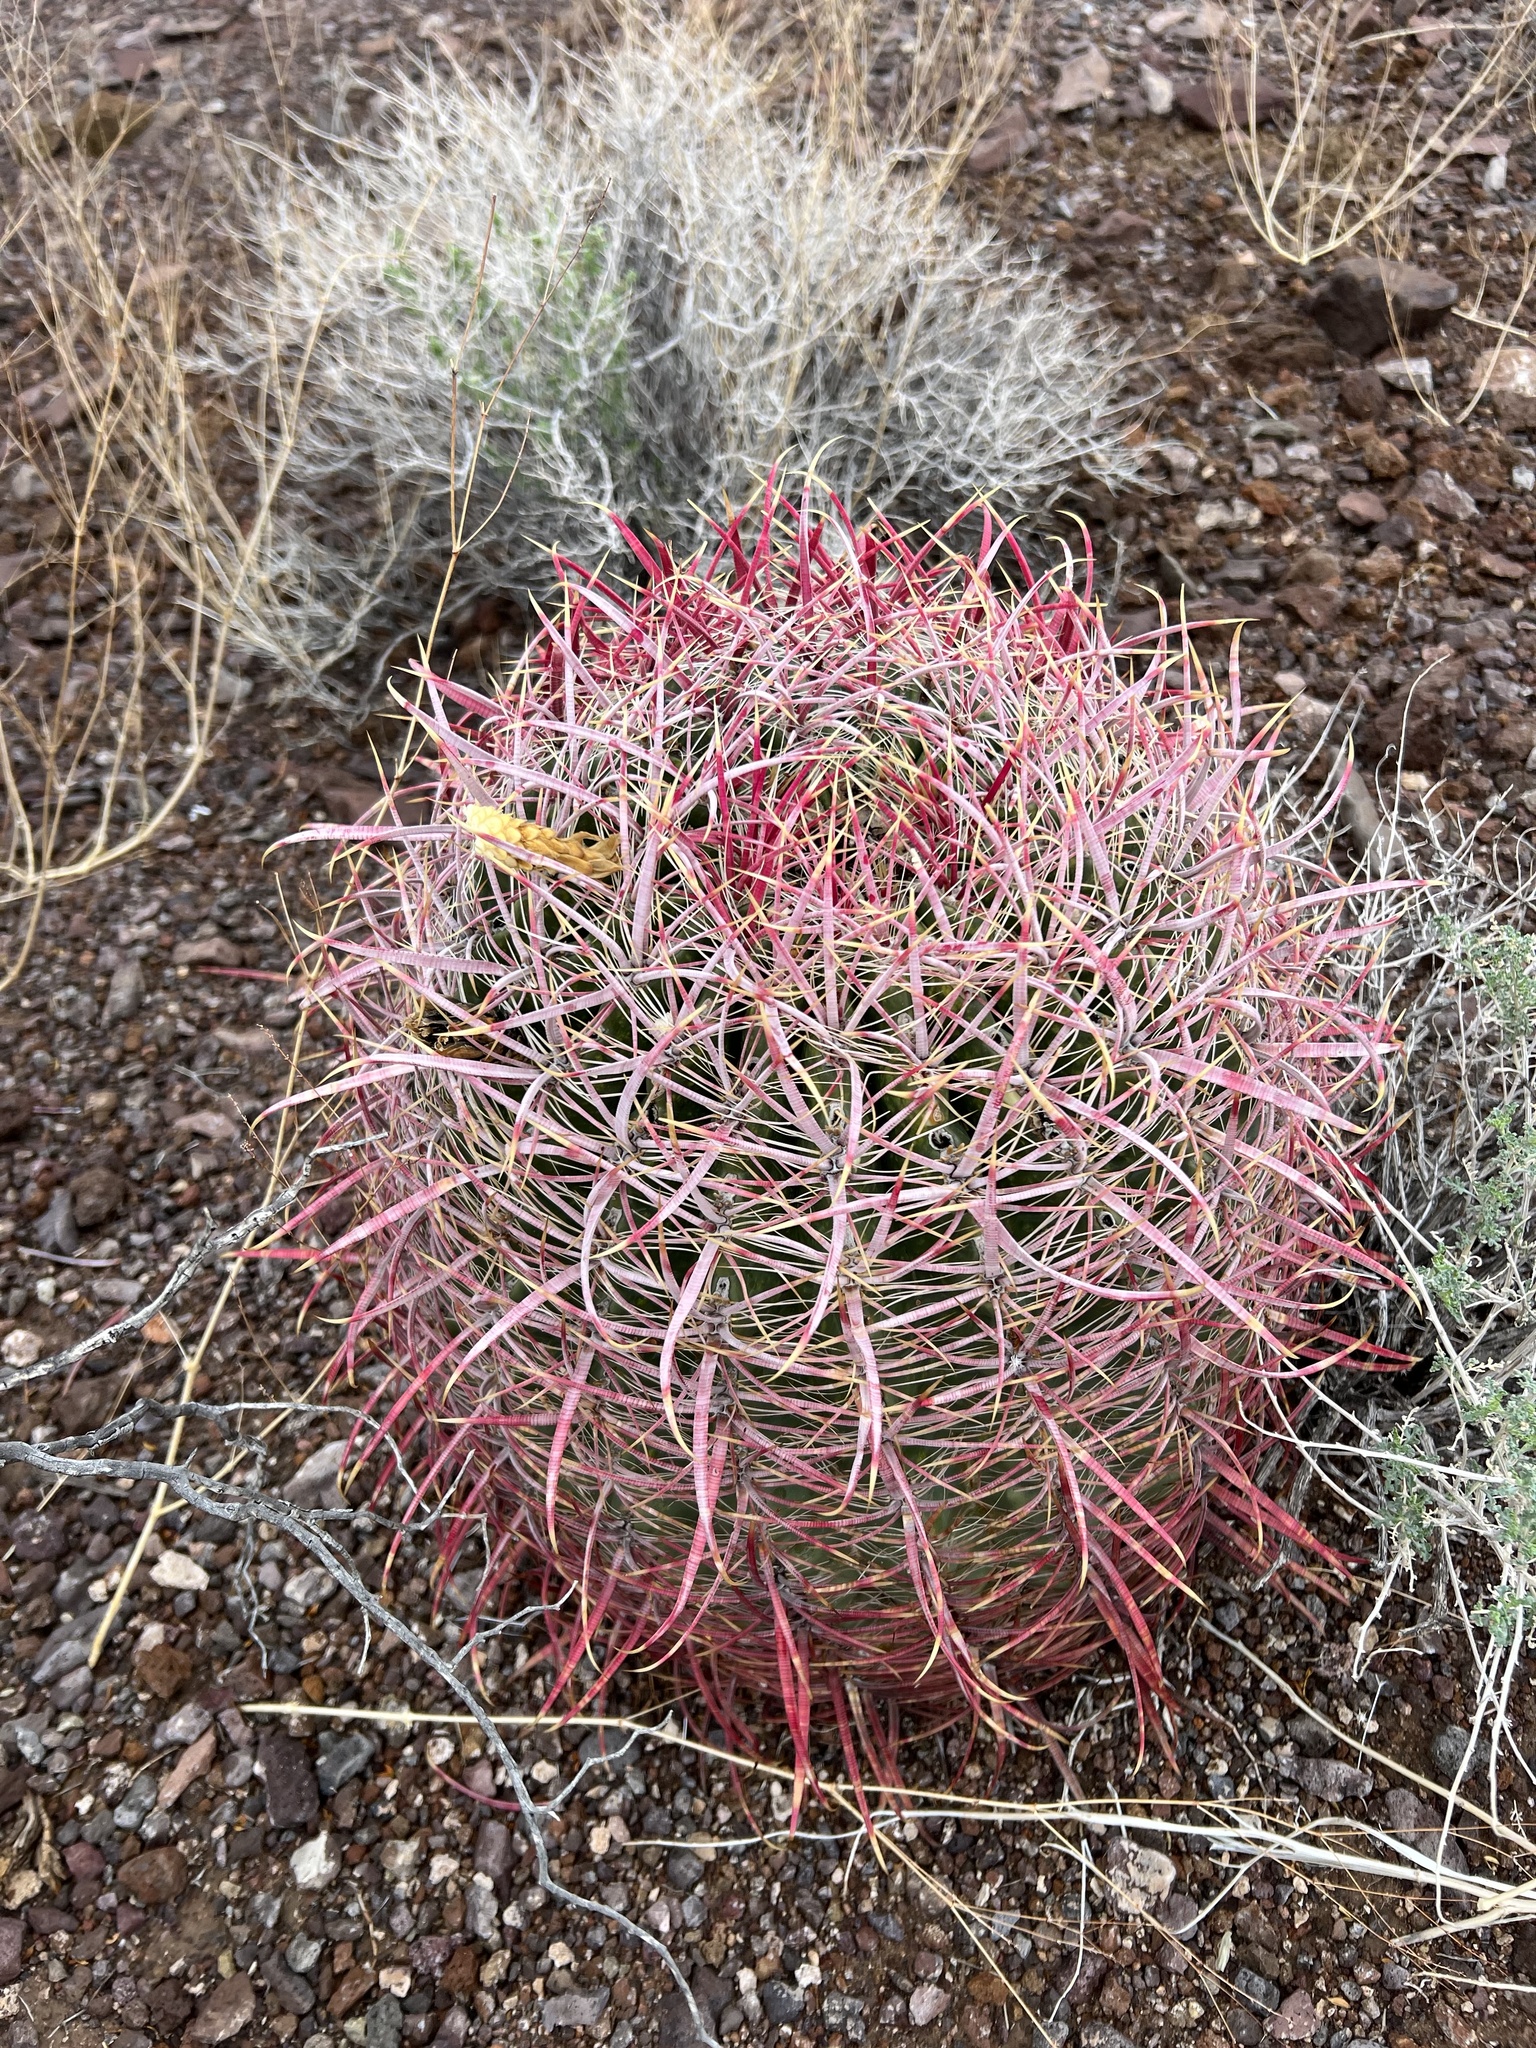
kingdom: Plantae
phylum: Tracheophyta
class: Magnoliopsida
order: Caryophyllales
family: Cactaceae
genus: Ferocactus
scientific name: Ferocactus cylindraceus
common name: California barrel cactus
